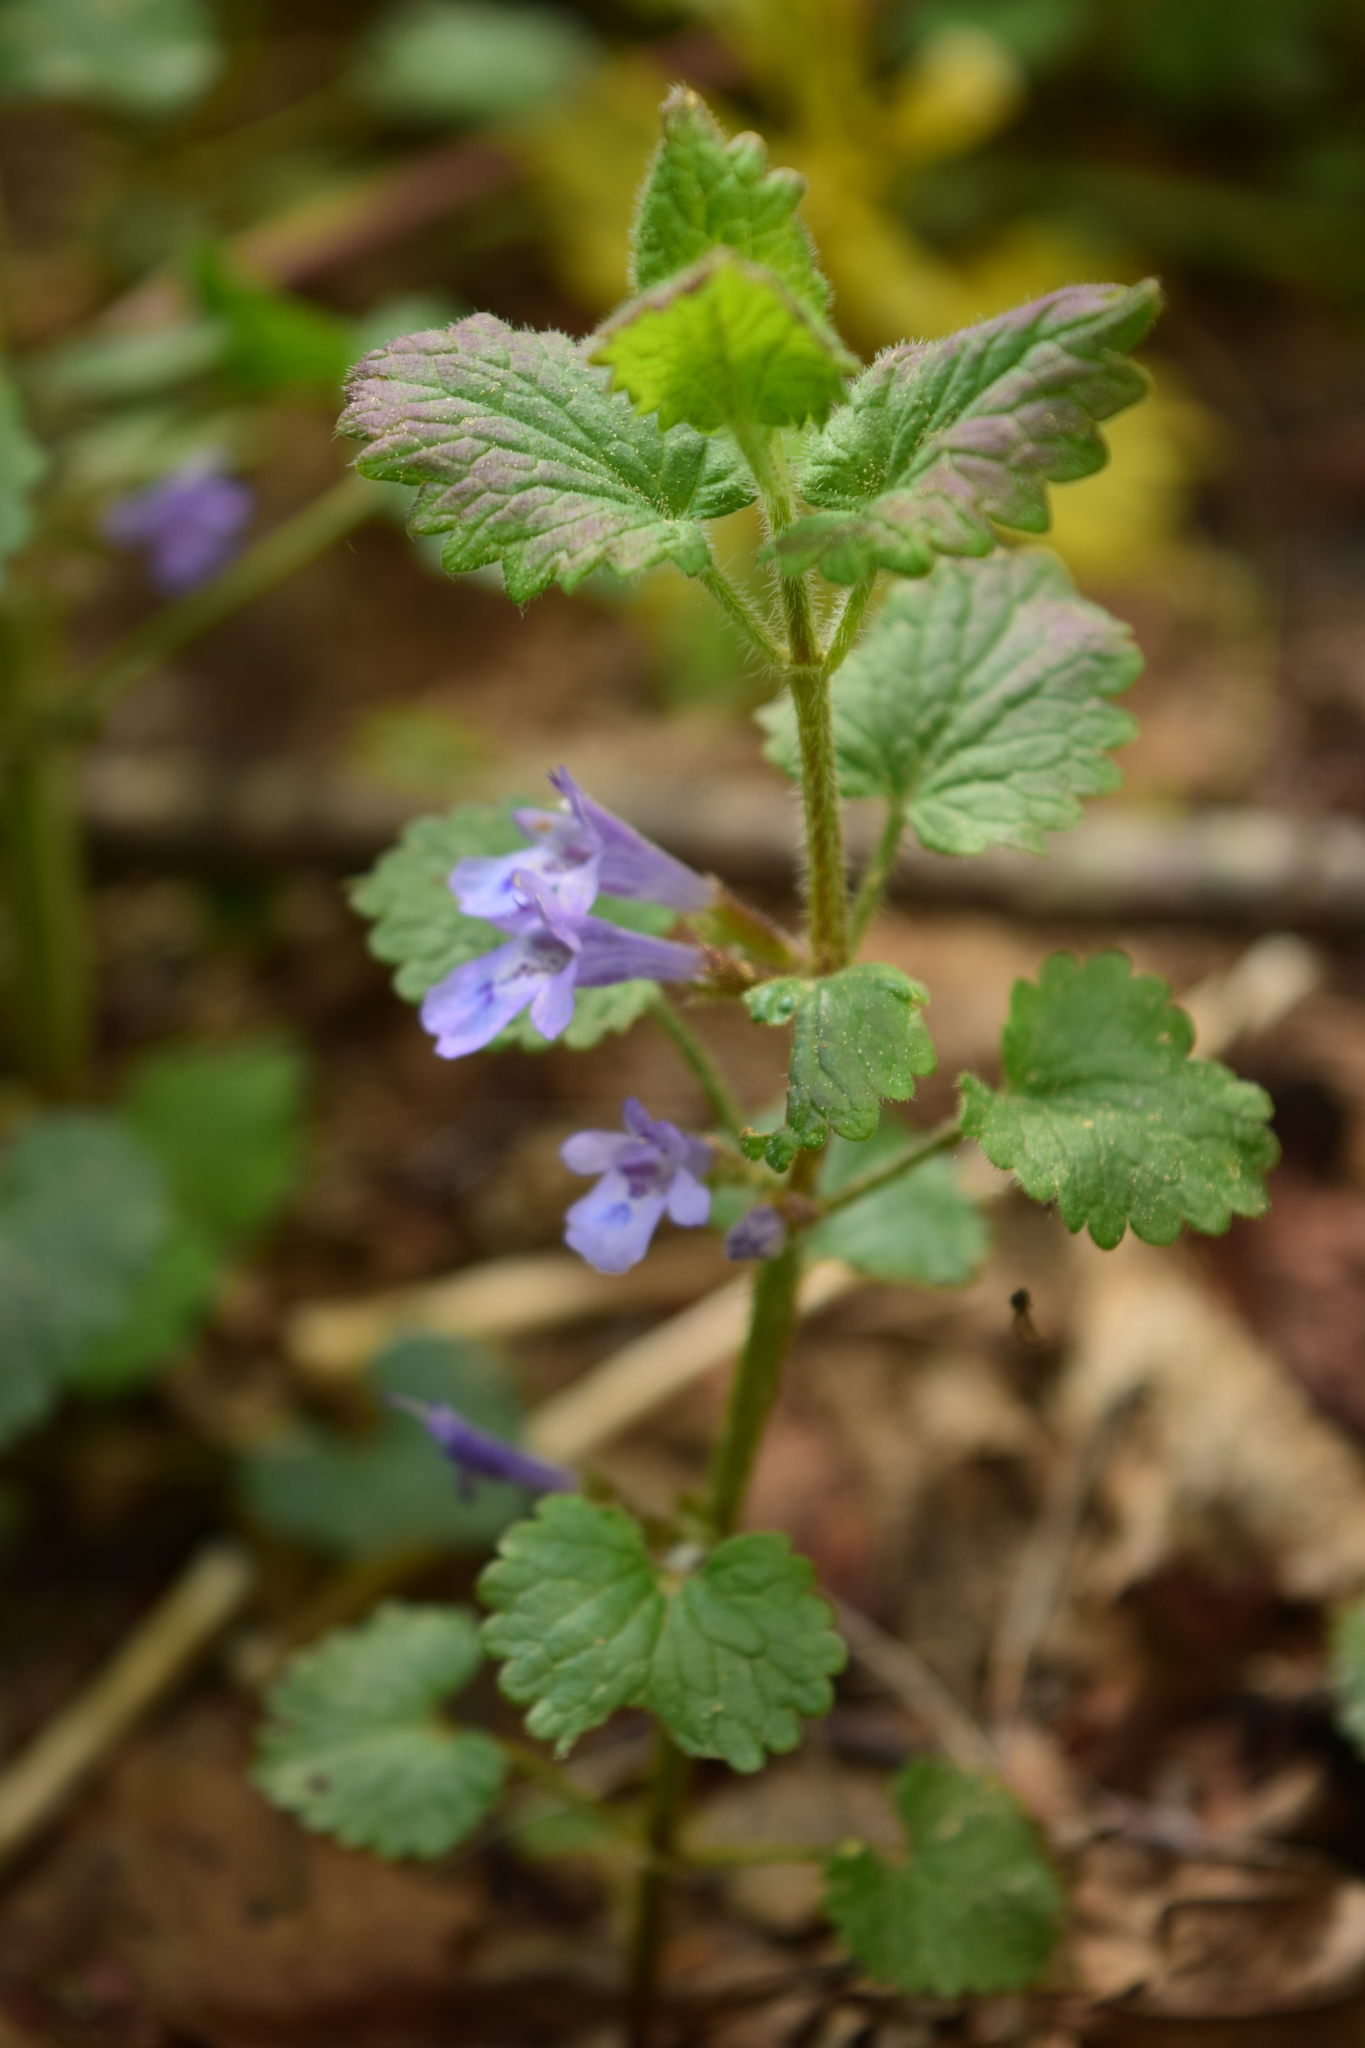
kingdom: Plantae
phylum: Tracheophyta
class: Magnoliopsida
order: Lamiales
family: Lamiaceae
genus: Glechoma
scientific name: Glechoma hederacea
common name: Ground ivy
